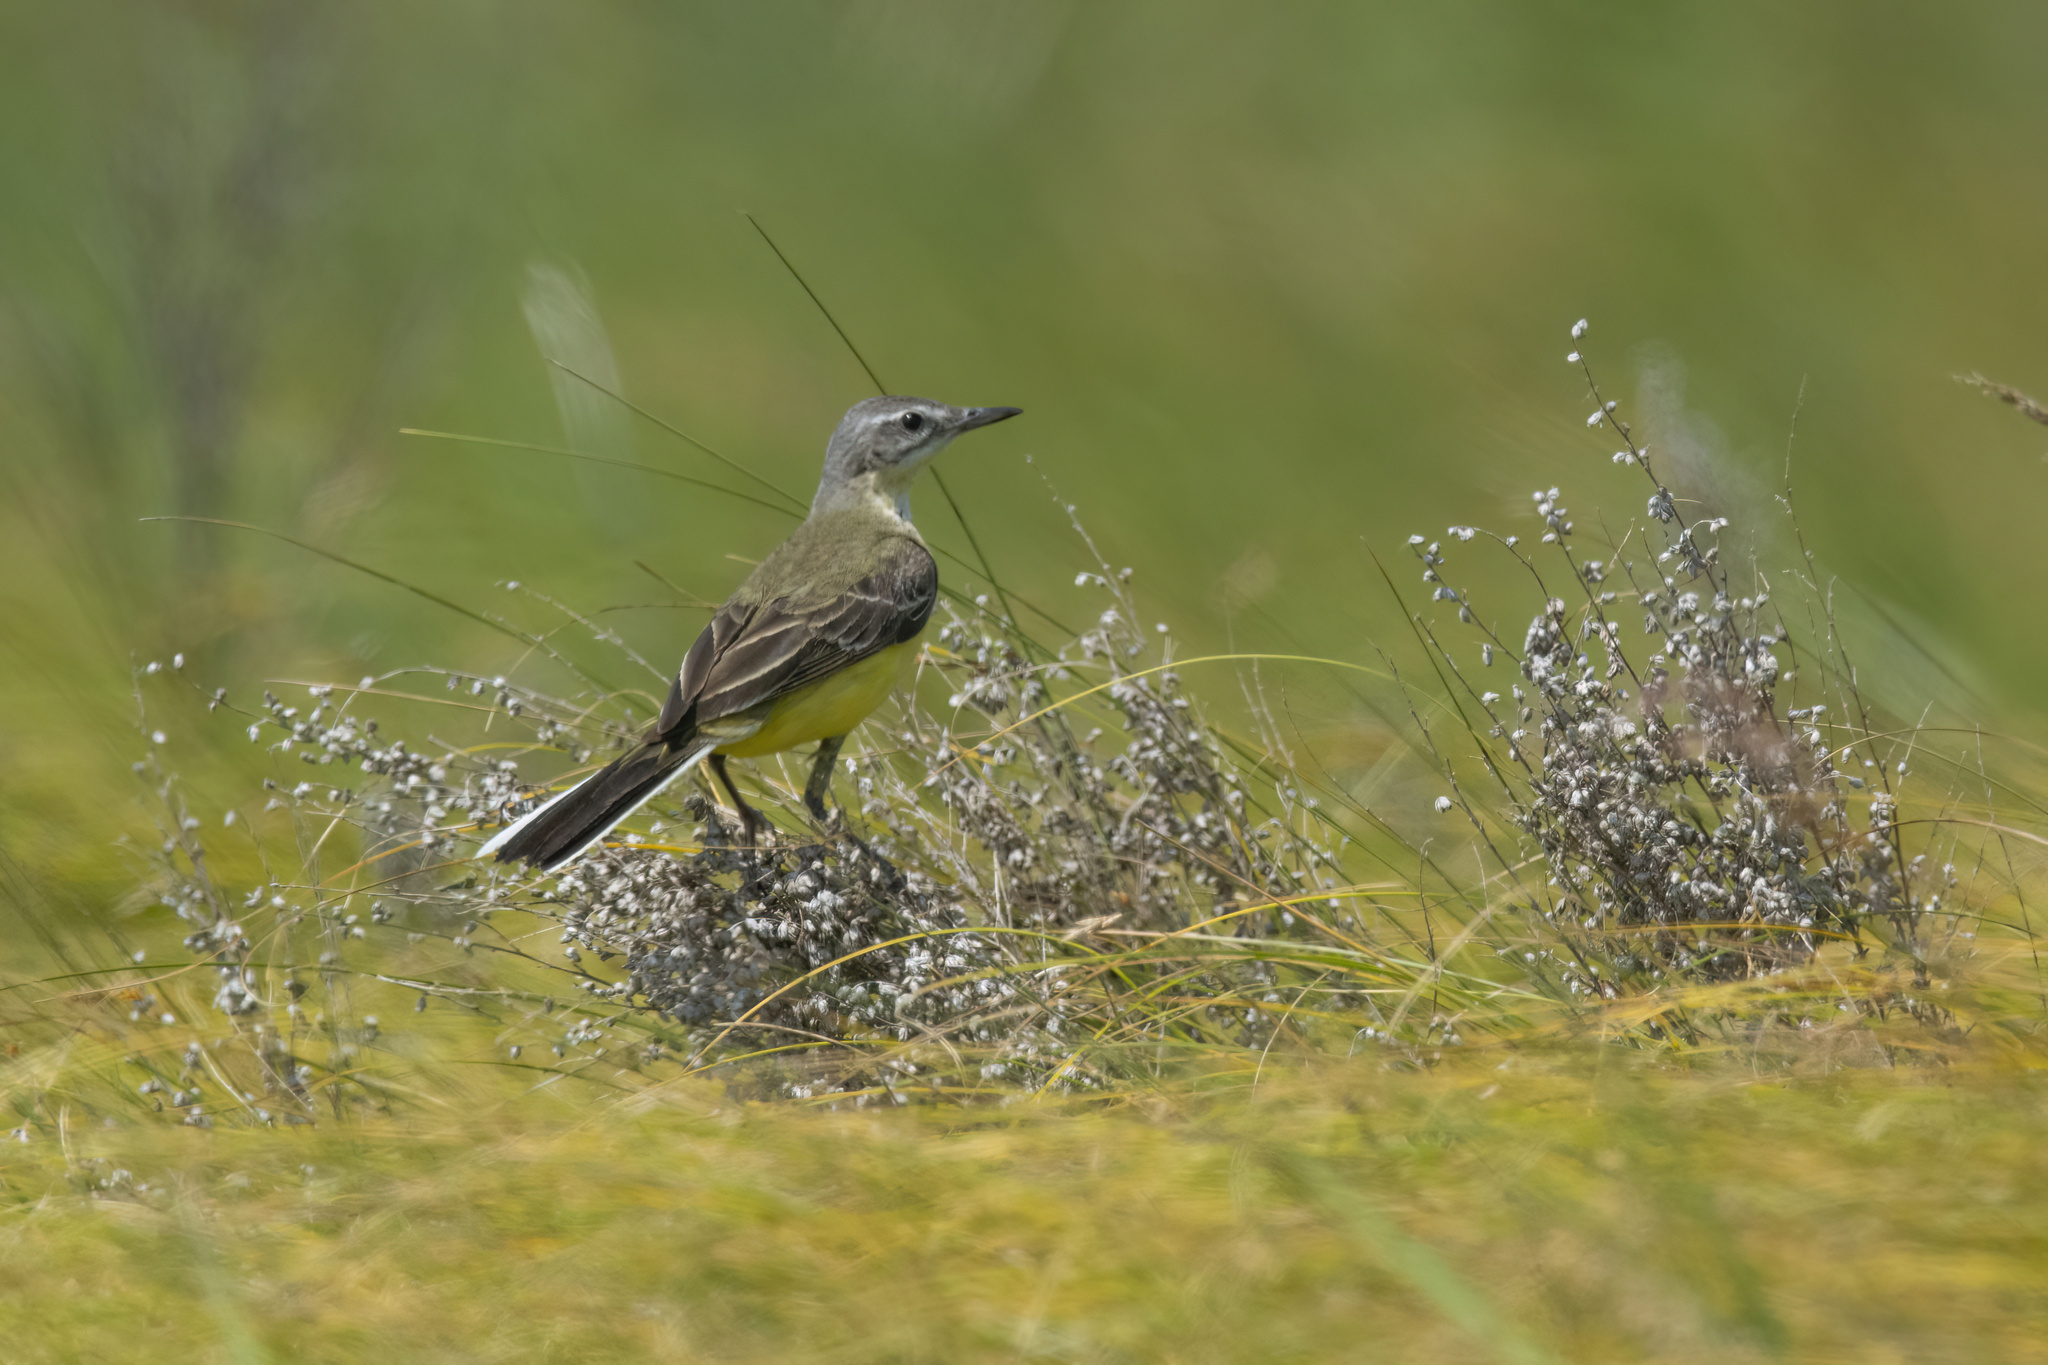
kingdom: Animalia
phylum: Chordata
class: Aves
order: Passeriformes
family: Motacillidae
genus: Motacilla
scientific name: Motacilla flava
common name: Western yellow wagtail
